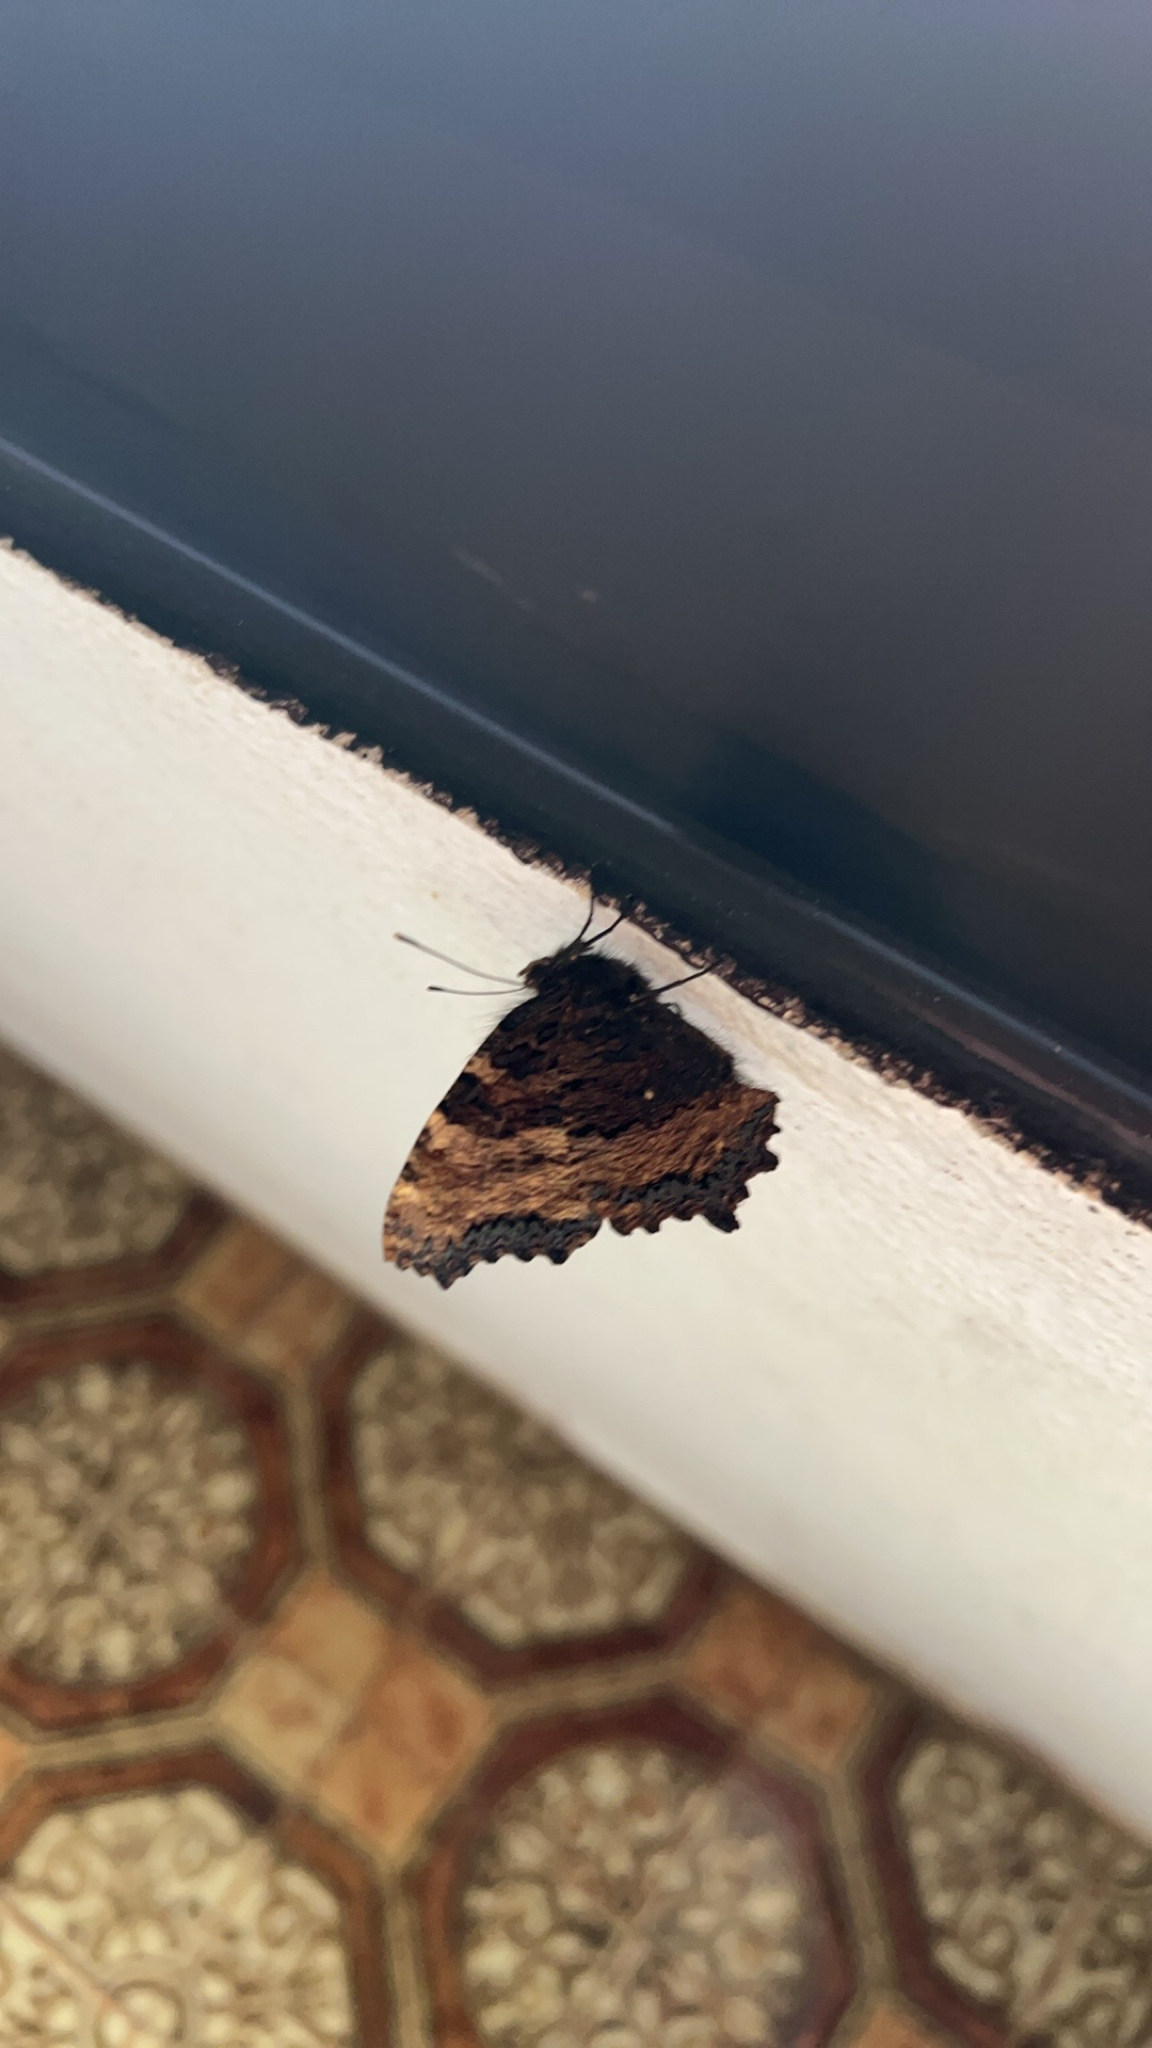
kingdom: Animalia
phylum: Arthropoda
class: Insecta
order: Lepidoptera
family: Nymphalidae
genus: Nymphalis
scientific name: Nymphalis polychloros
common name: Large tortoiseshell
